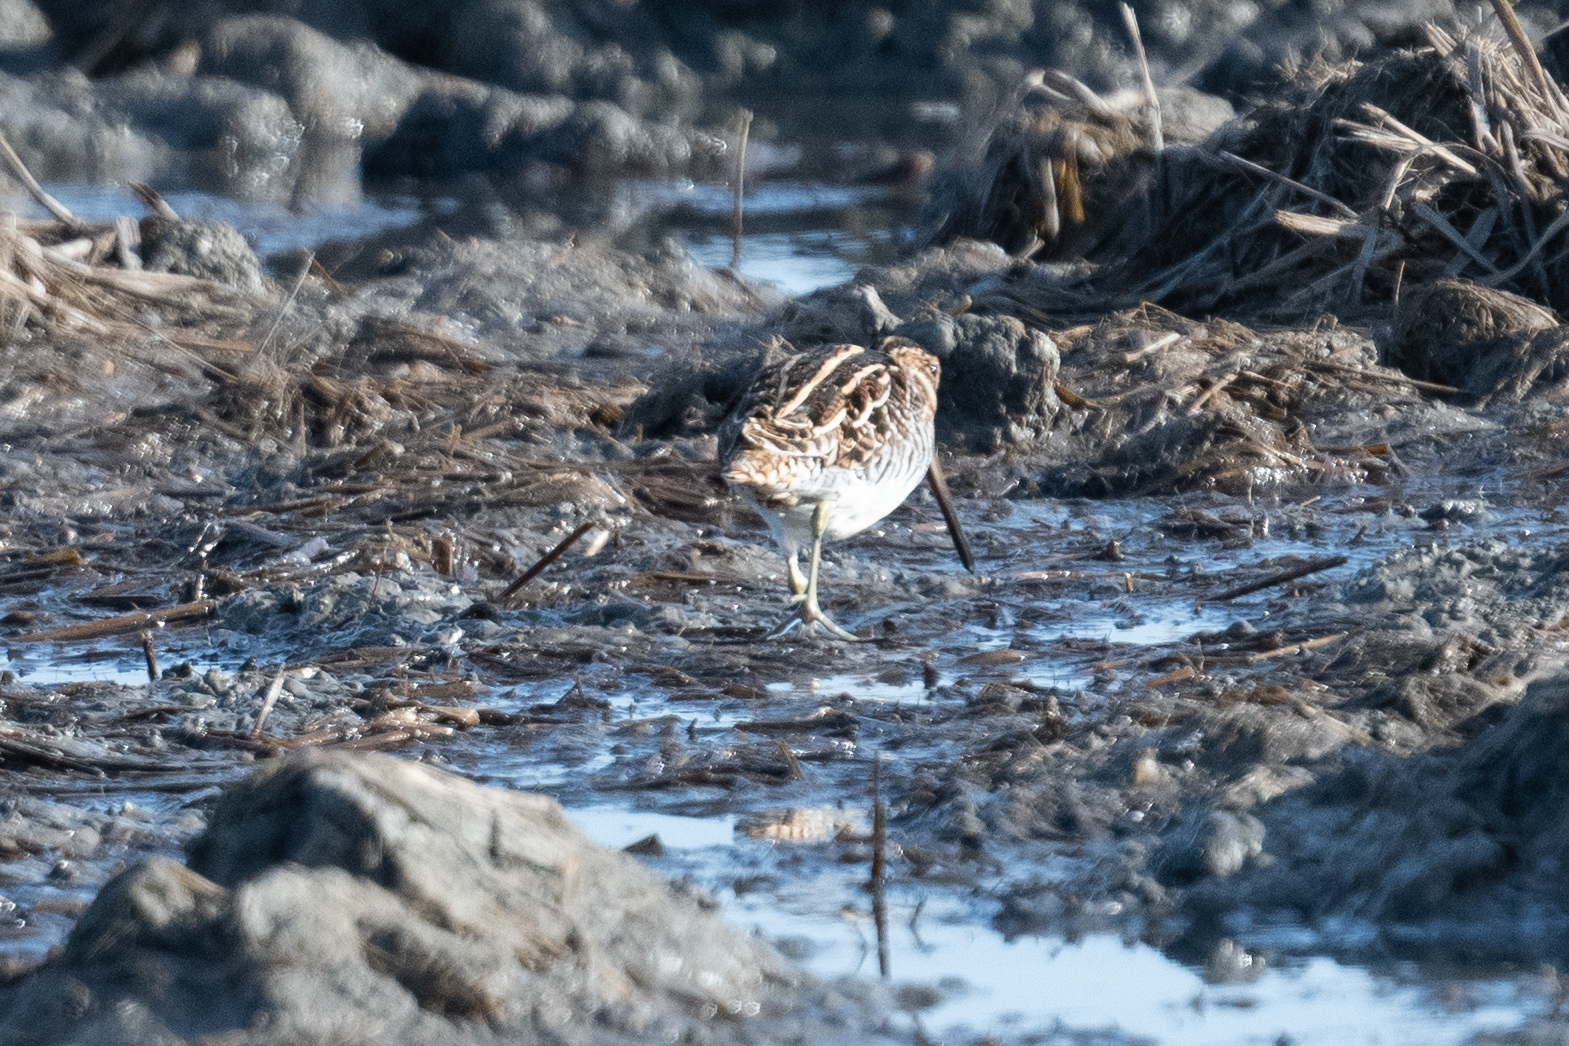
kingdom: Animalia
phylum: Chordata
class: Aves
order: Charadriiformes
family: Scolopacidae
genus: Gallinago
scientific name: Gallinago delicata
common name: Wilson's snipe
